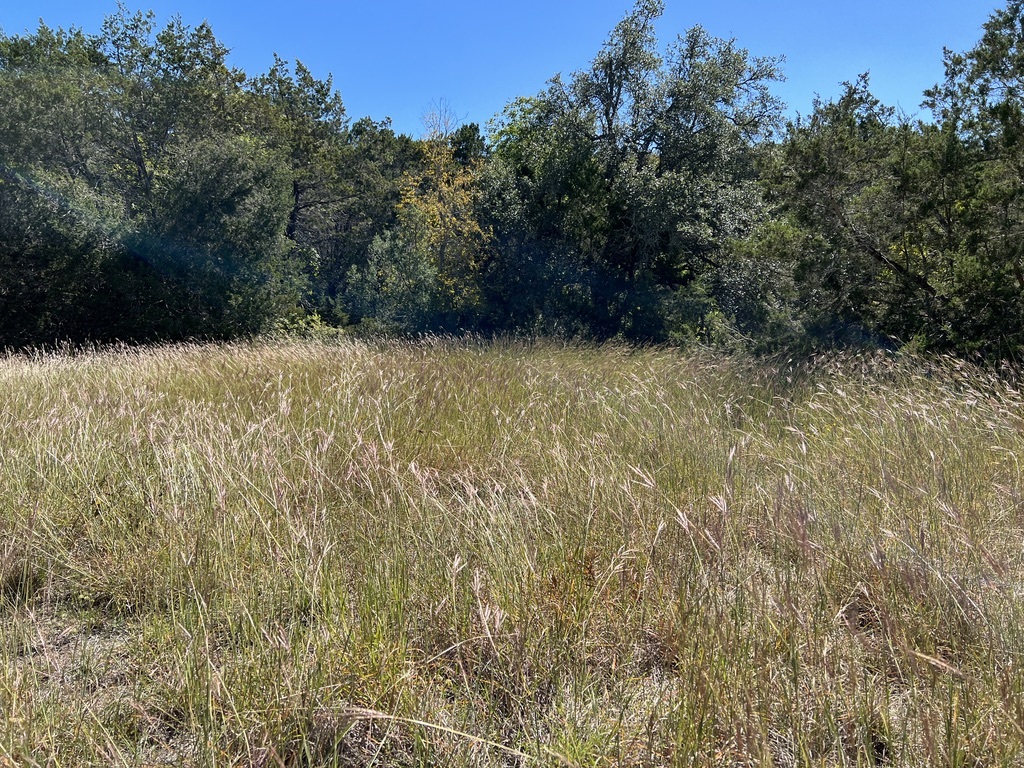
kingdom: Plantae
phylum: Tracheophyta
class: Liliopsida
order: Poales
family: Poaceae
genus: Bothriochloa
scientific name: Bothriochloa ischaemum
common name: Yellow bluestem
